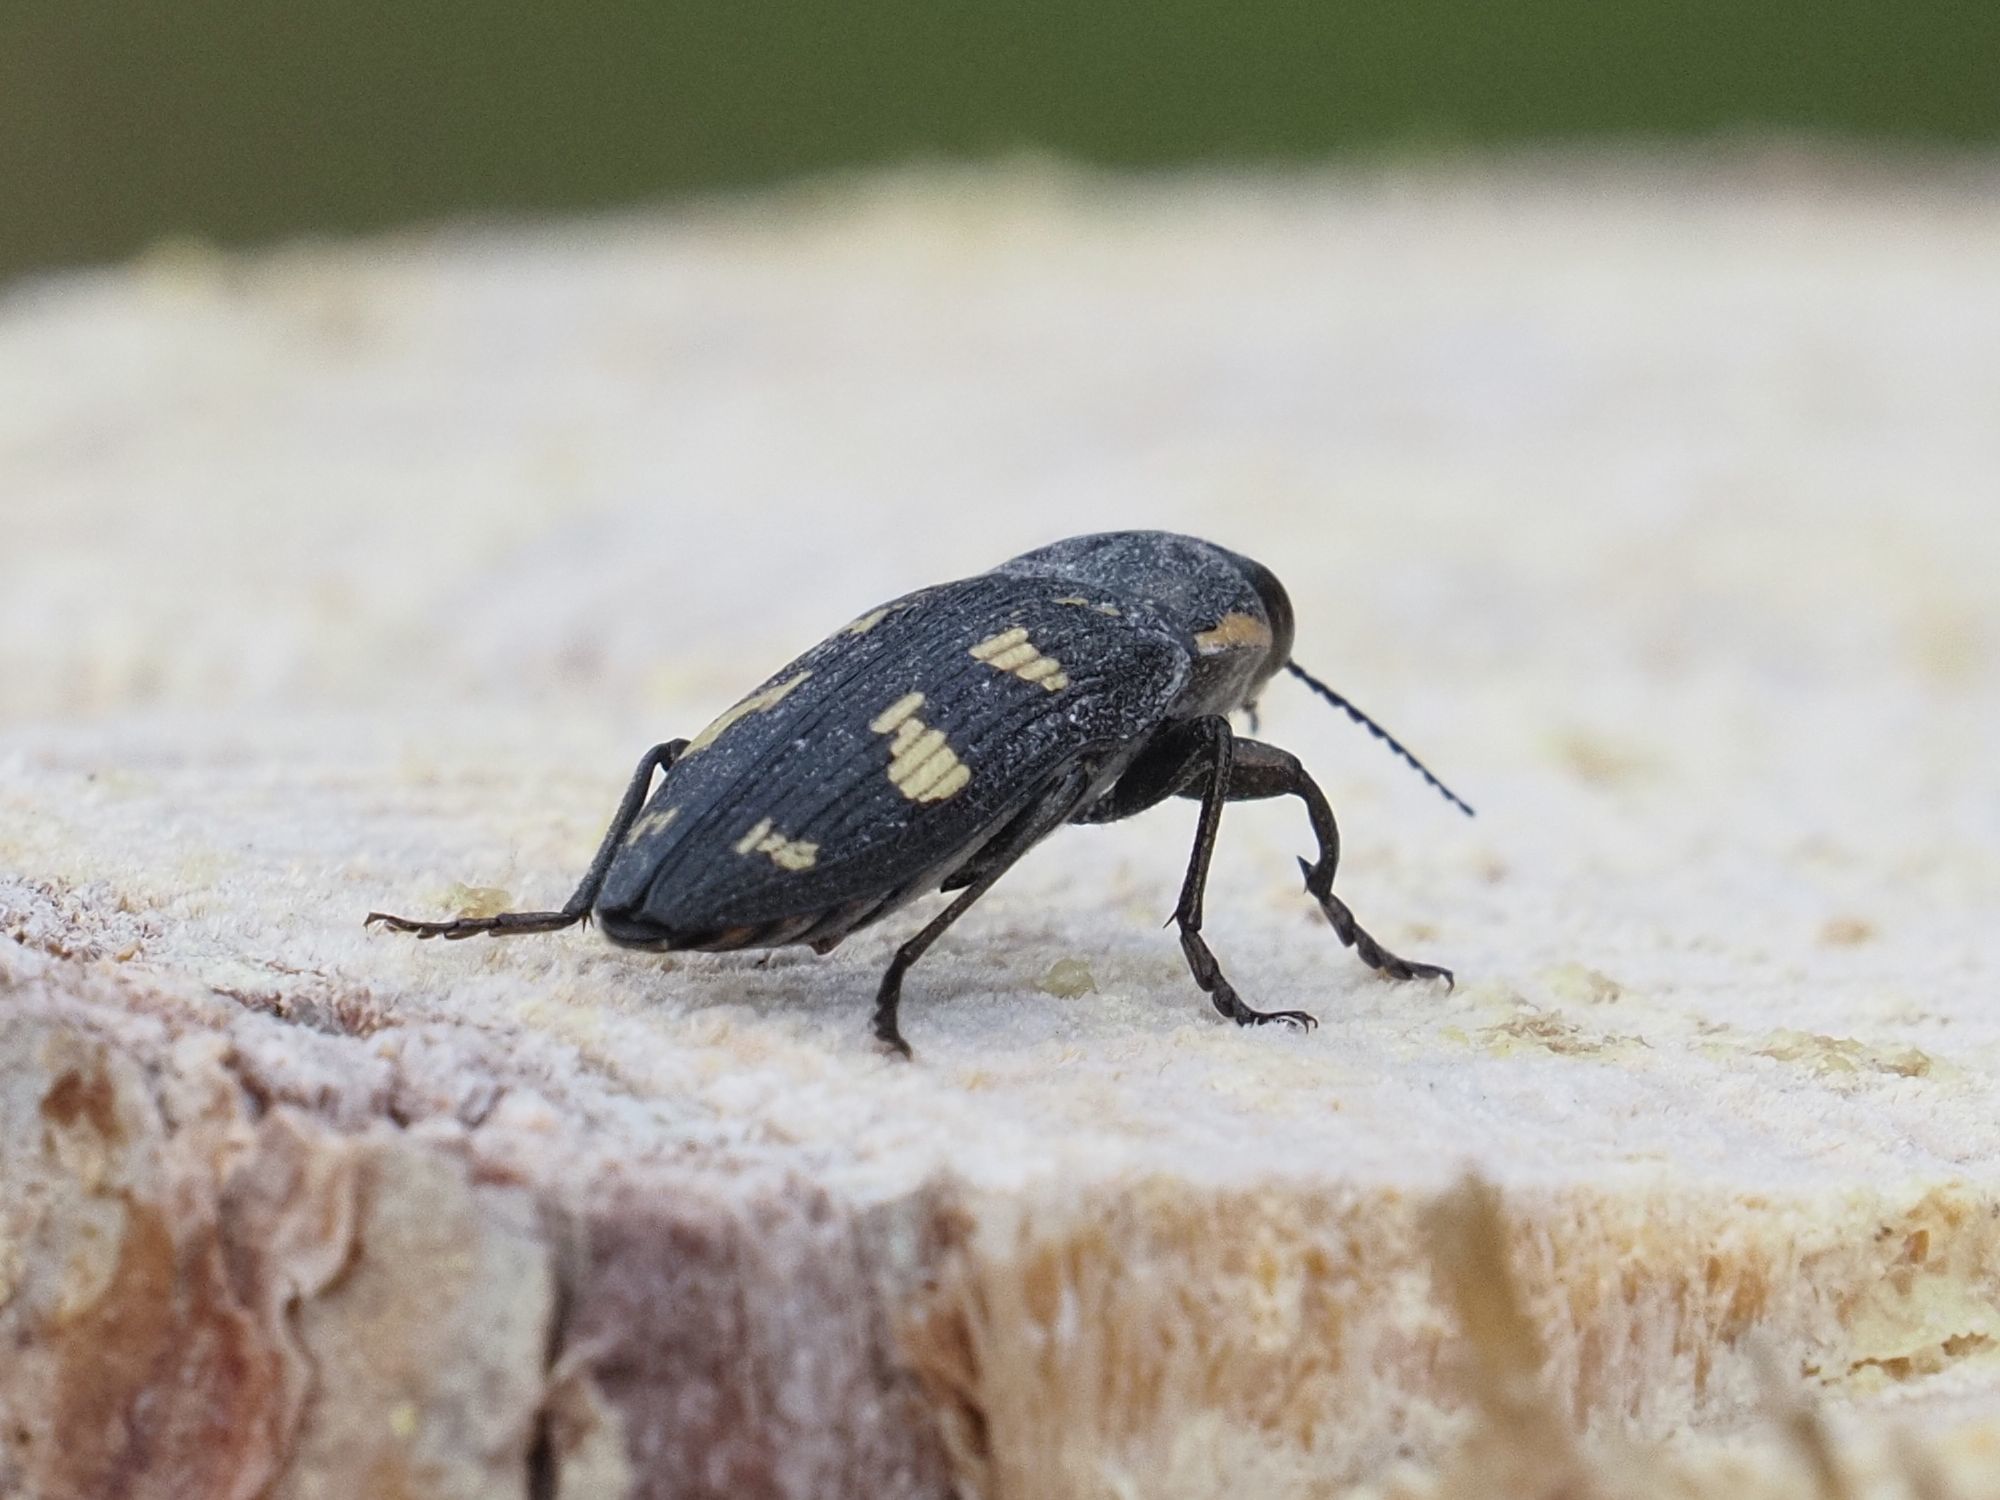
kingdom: Animalia
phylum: Arthropoda
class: Insecta
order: Coleoptera
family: Buprestidae
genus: Buprestis
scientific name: Buprestis novemmaculata
